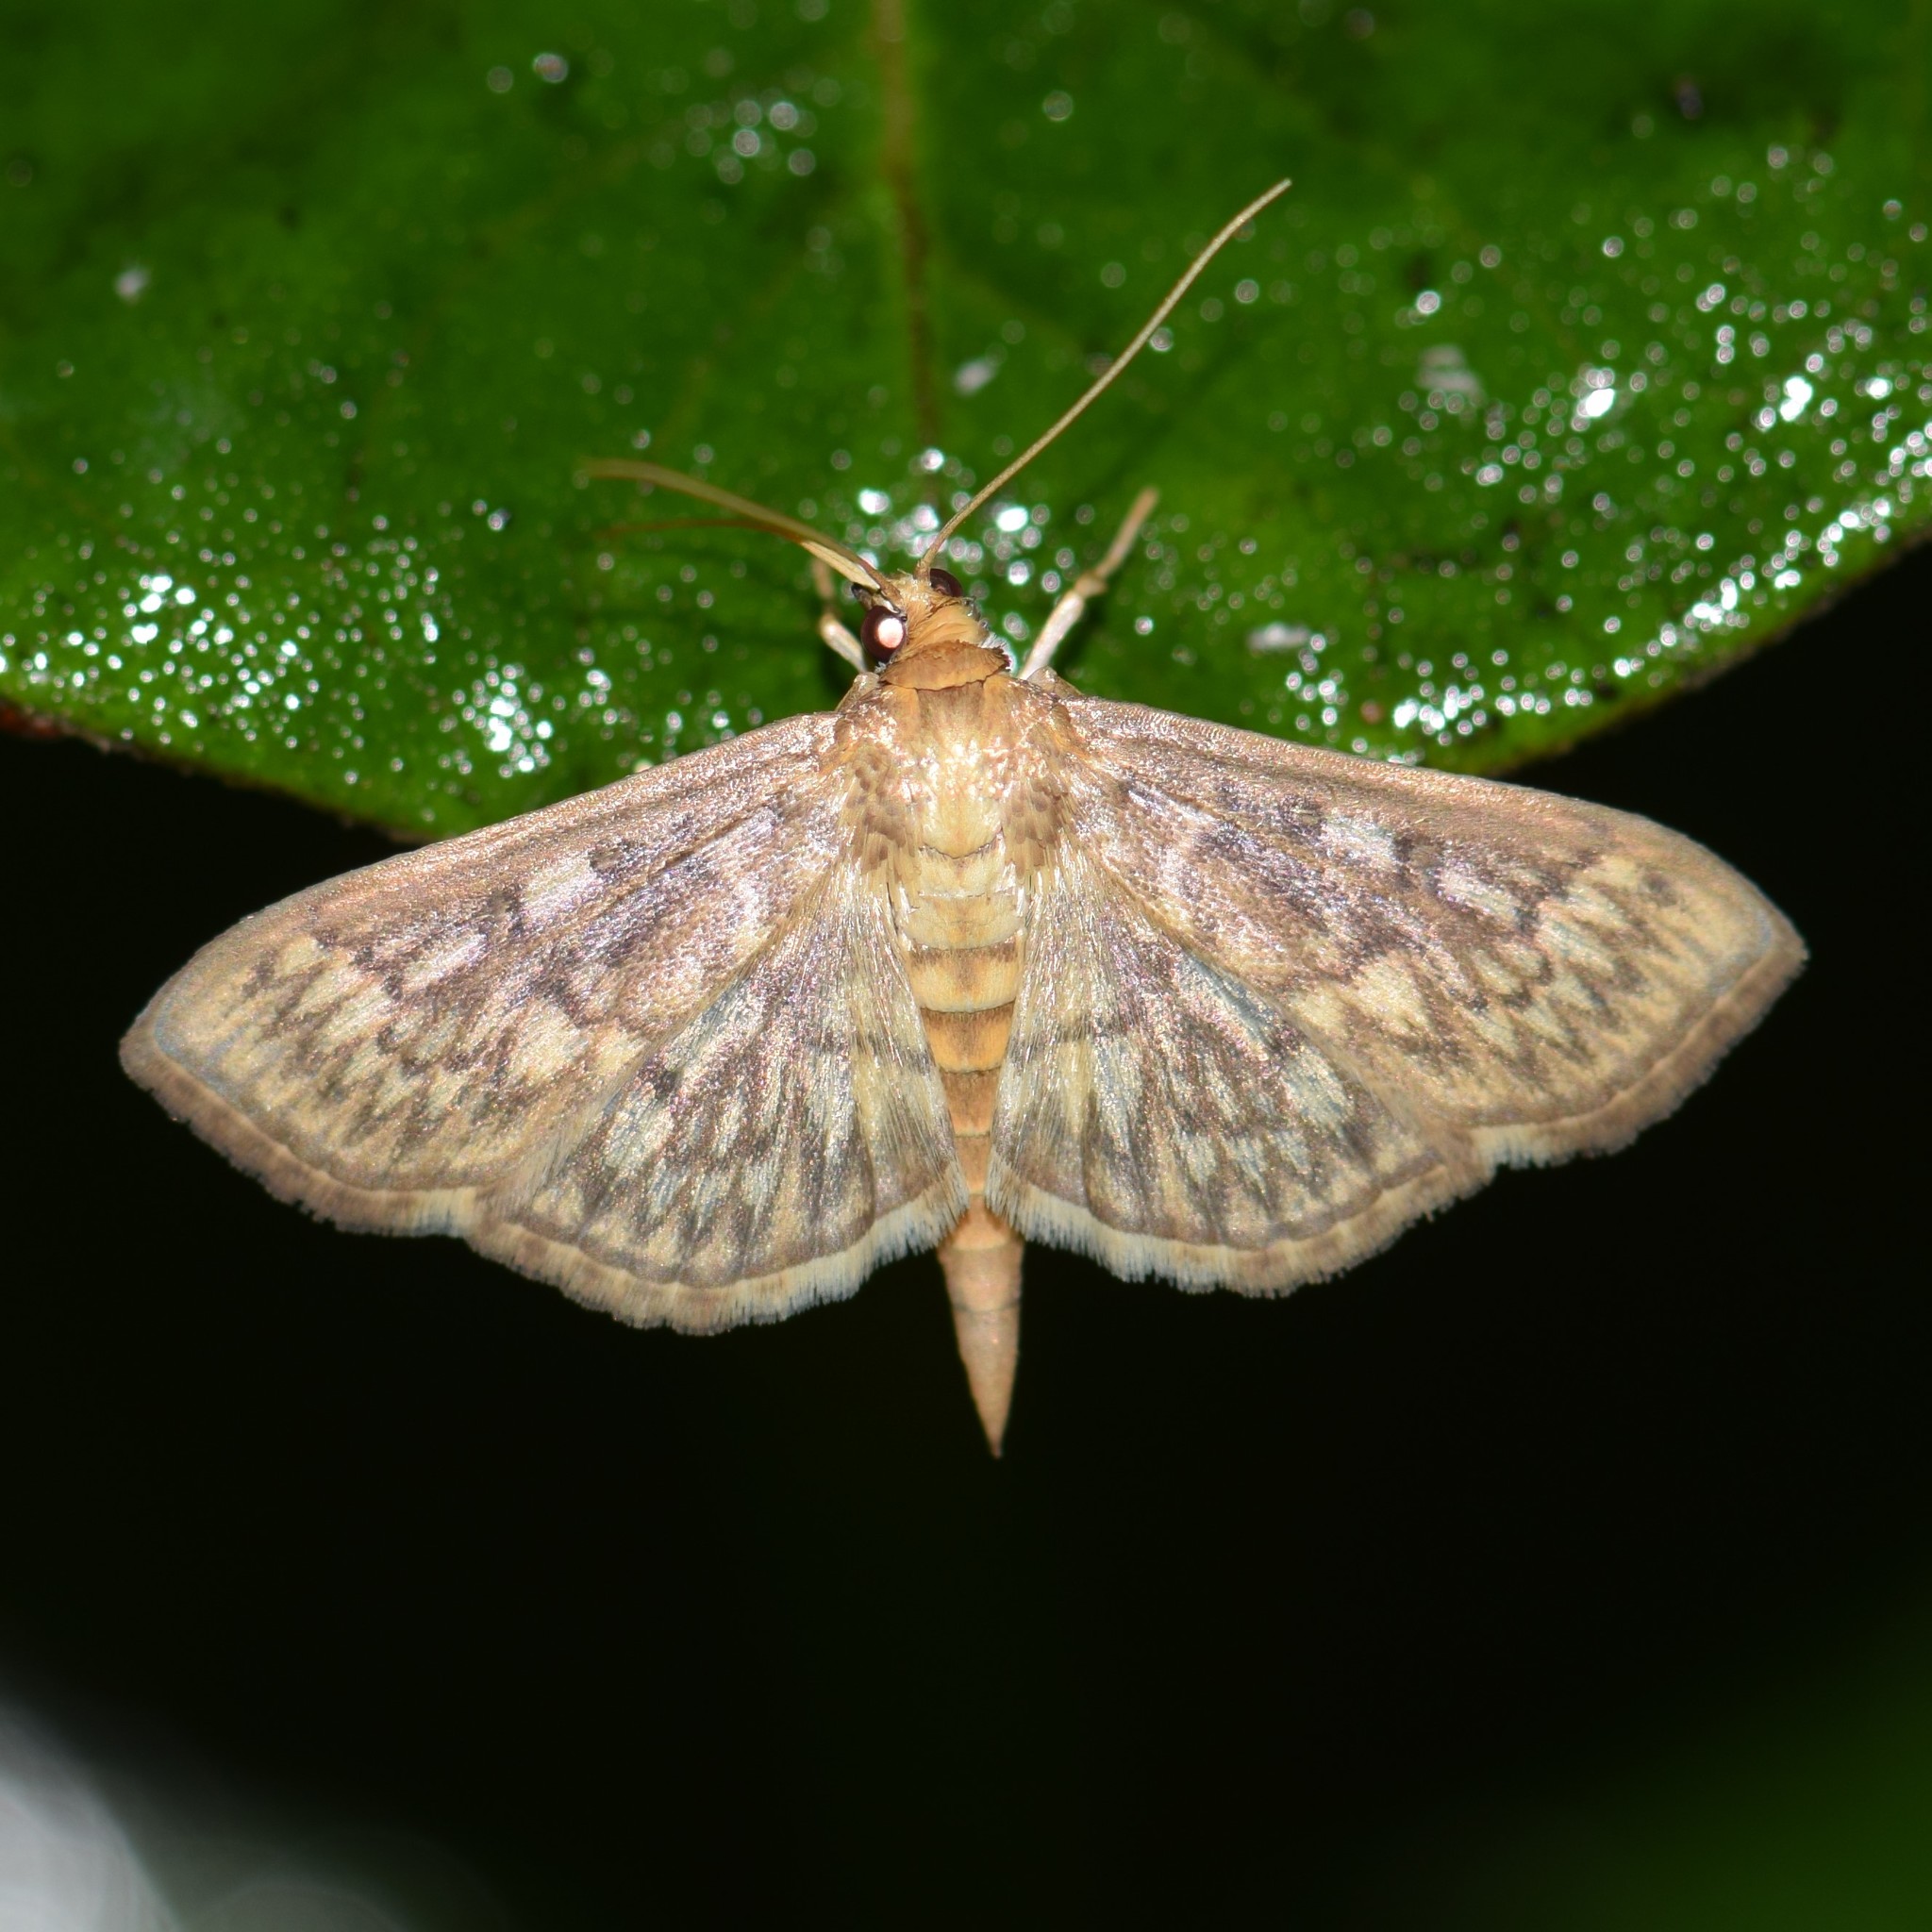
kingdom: Animalia
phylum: Arthropoda
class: Insecta
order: Lepidoptera
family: Crambidae
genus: Herpetogramma
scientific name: Herpetogramma pertextalis
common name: Bold-feathered grass moth
